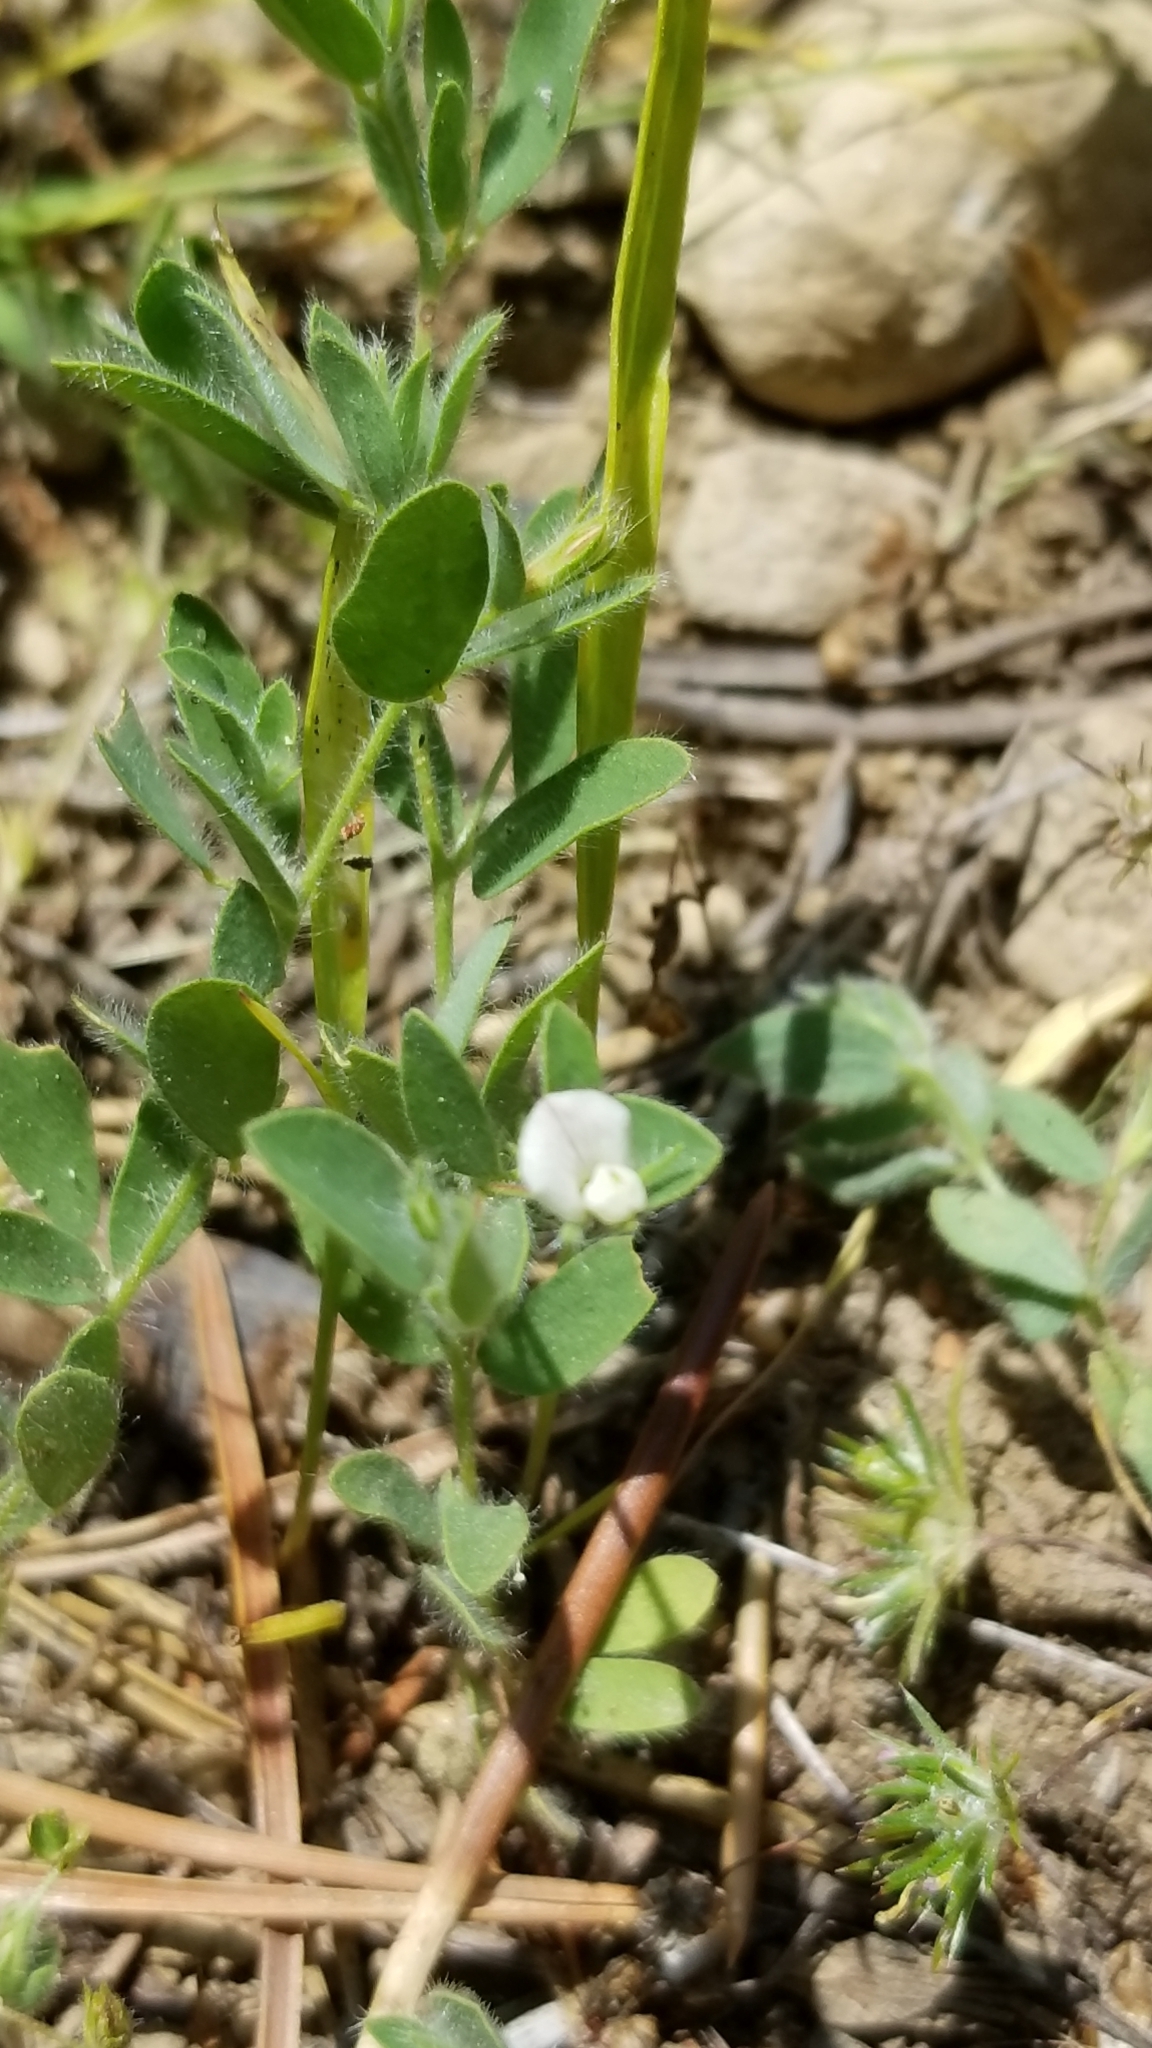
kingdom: Plantae
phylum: Tracheophyta
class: Magnoliopsida
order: Fabales
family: Fabaceae
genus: Acmispon
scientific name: Acmispon americanus
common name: American bird's-foot trefoil
